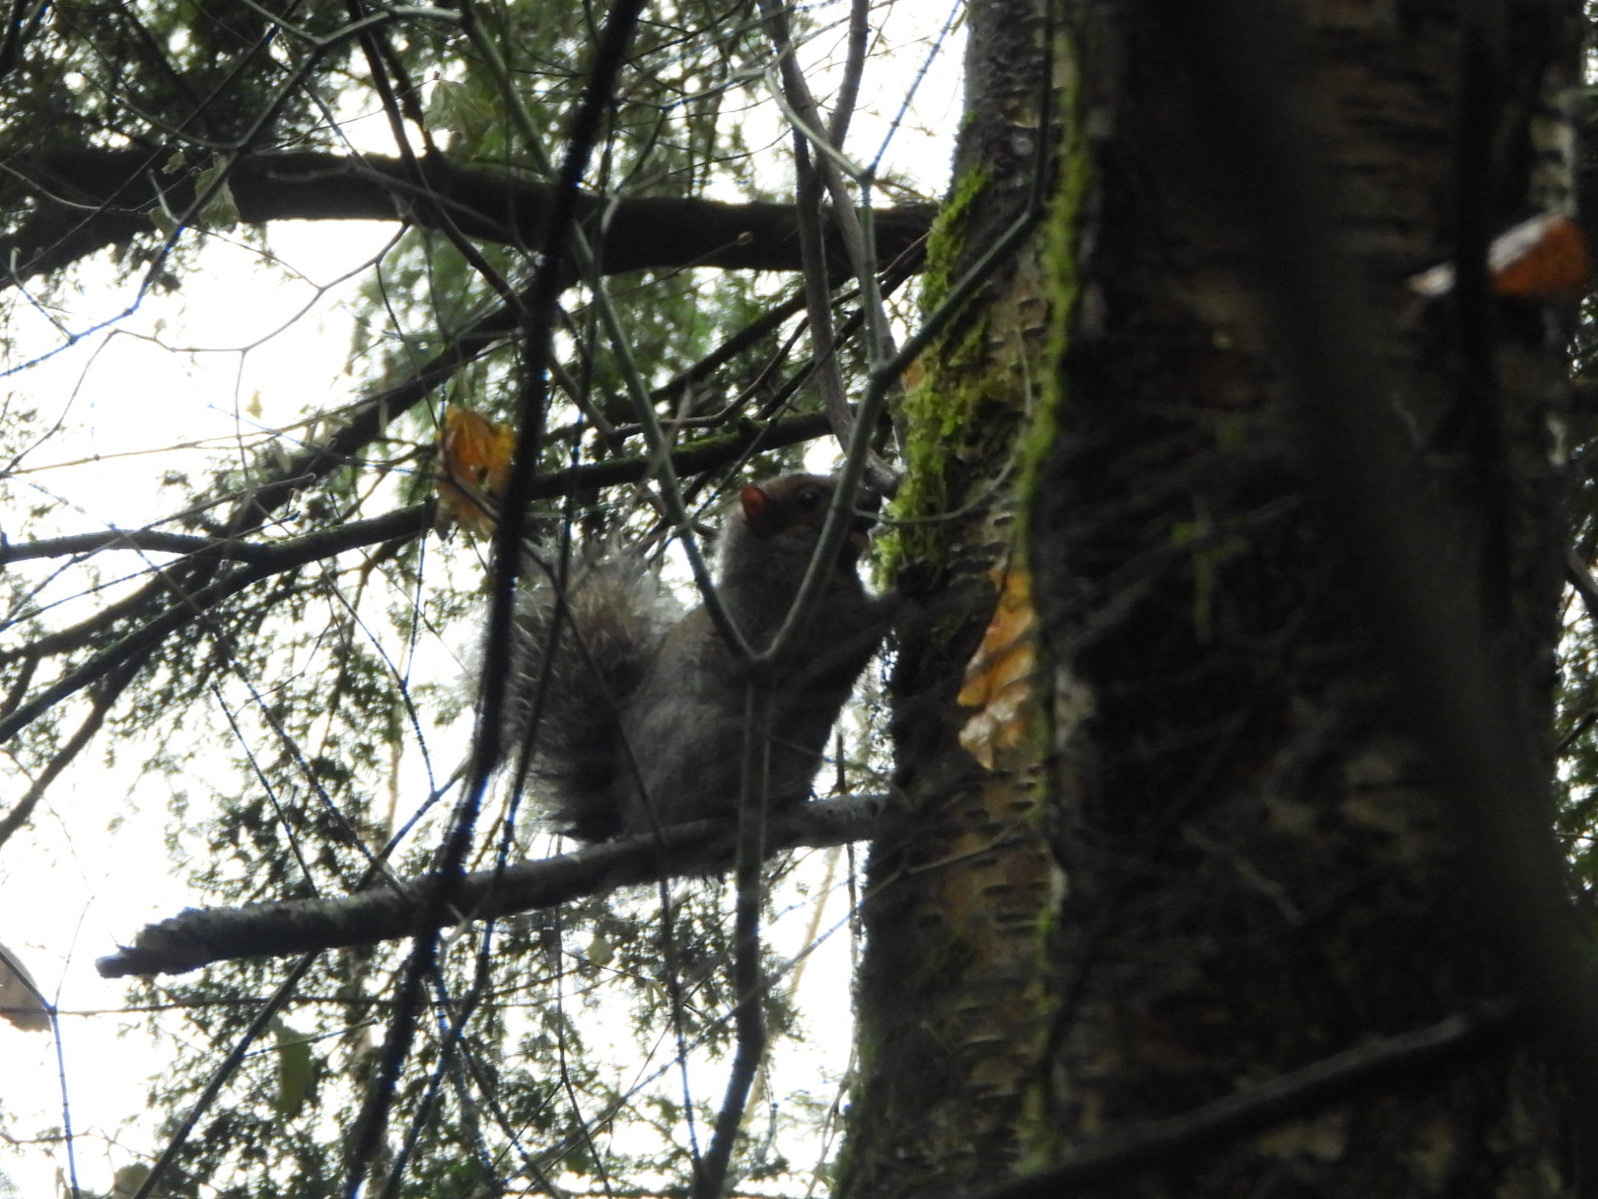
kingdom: Animalia
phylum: Chordata
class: Mammalia
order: Rodentia
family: Sciuridae
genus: Sciurus
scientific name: Sciurus carolinensis
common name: Eastern gray squirrel
